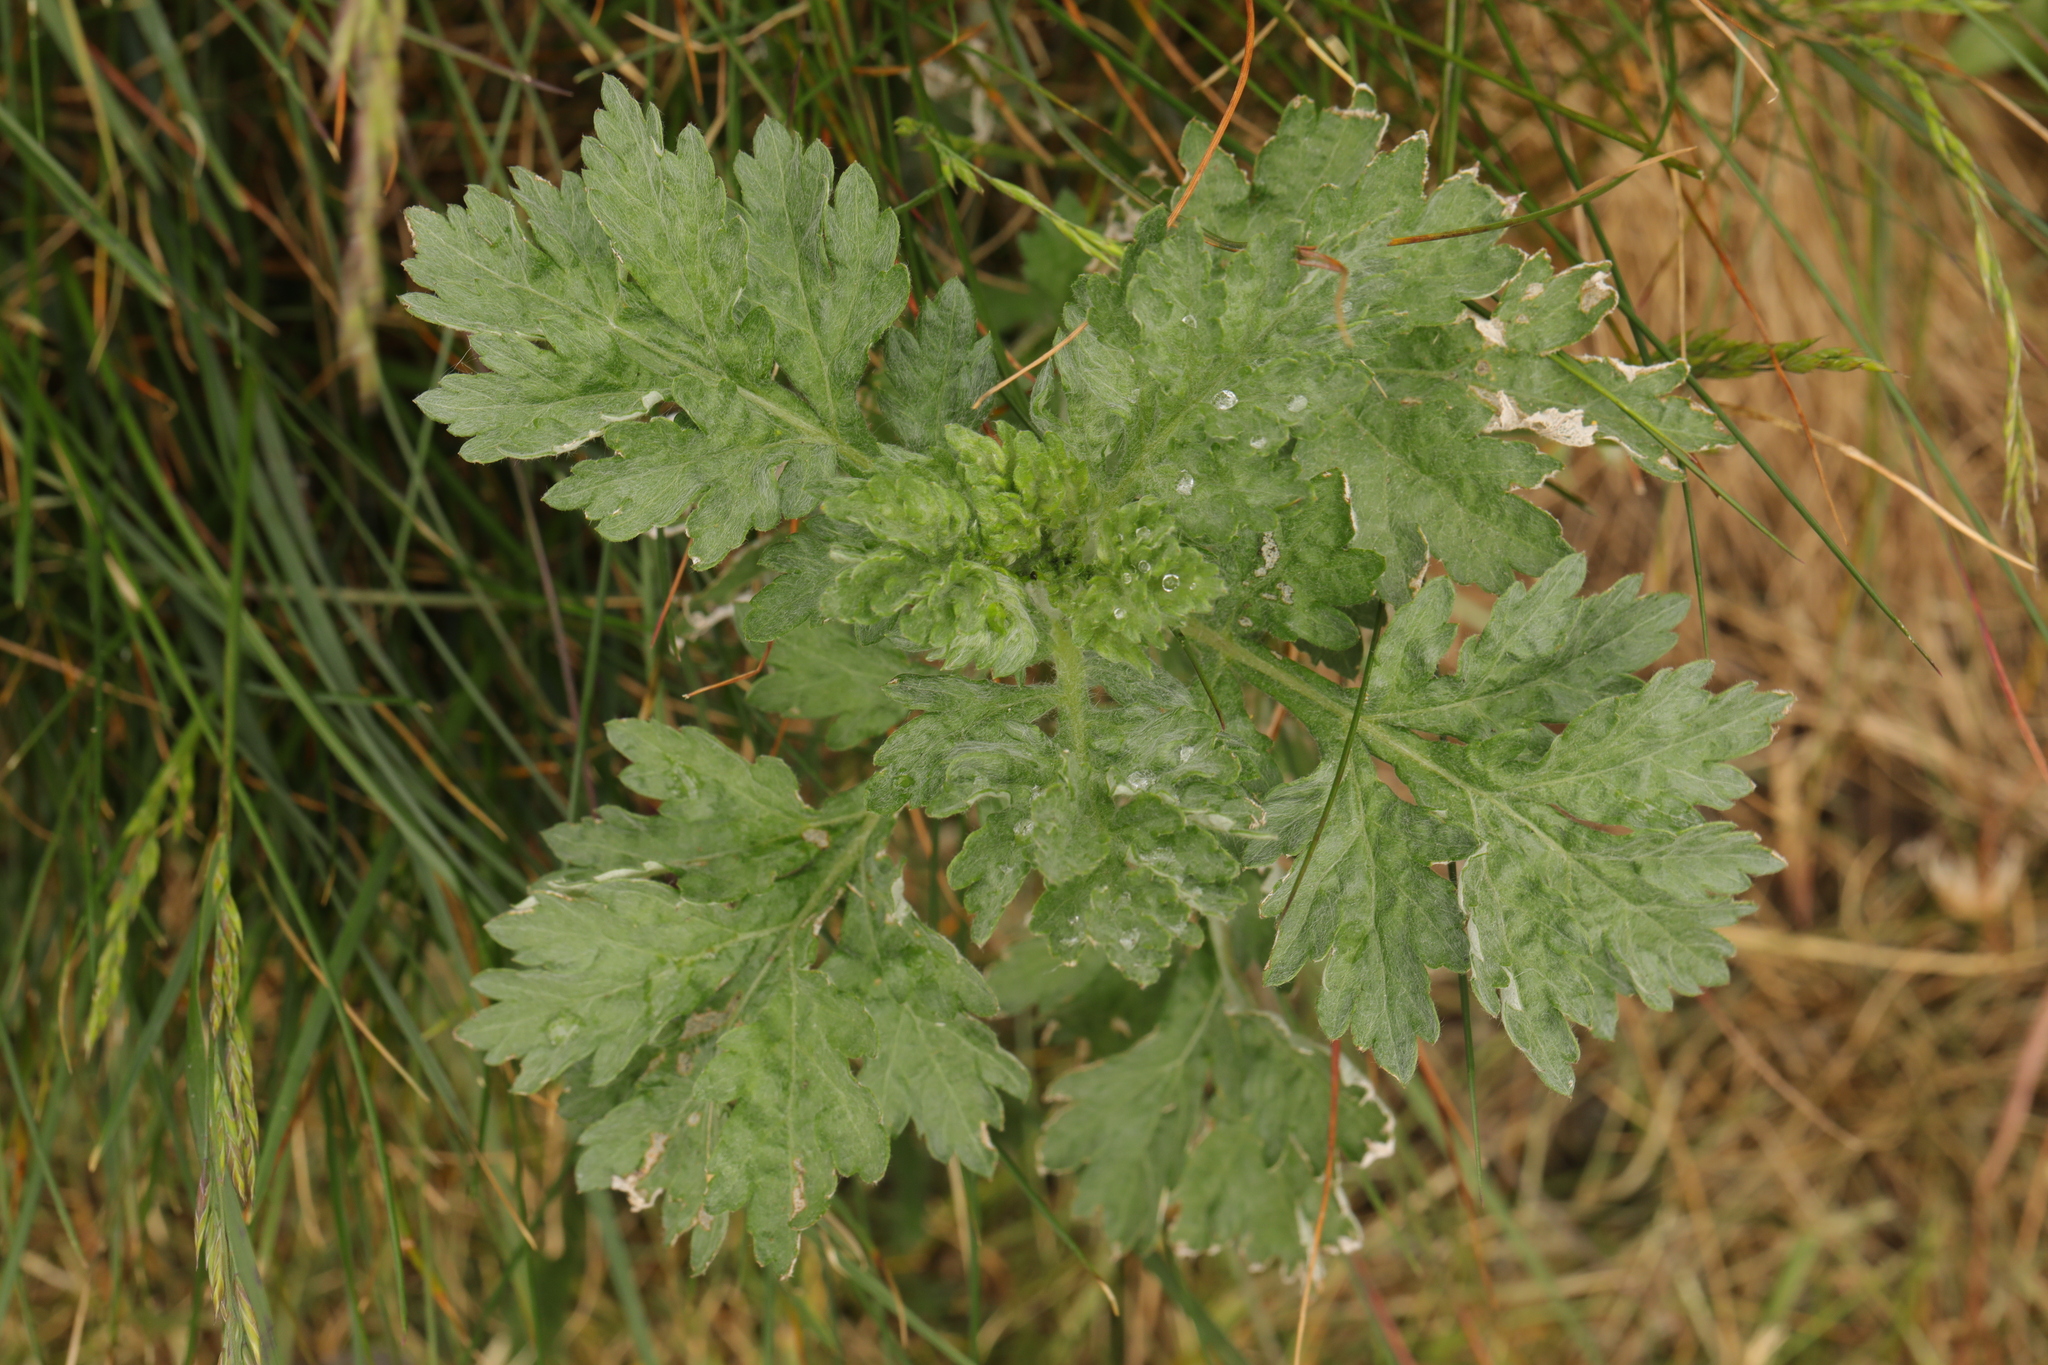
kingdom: Plantae
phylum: Tracheophyta
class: Magnoliopsida
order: Asterales
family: Asteraceae
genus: Artemisia
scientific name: Artemisia vulgaris
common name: Mugwort
